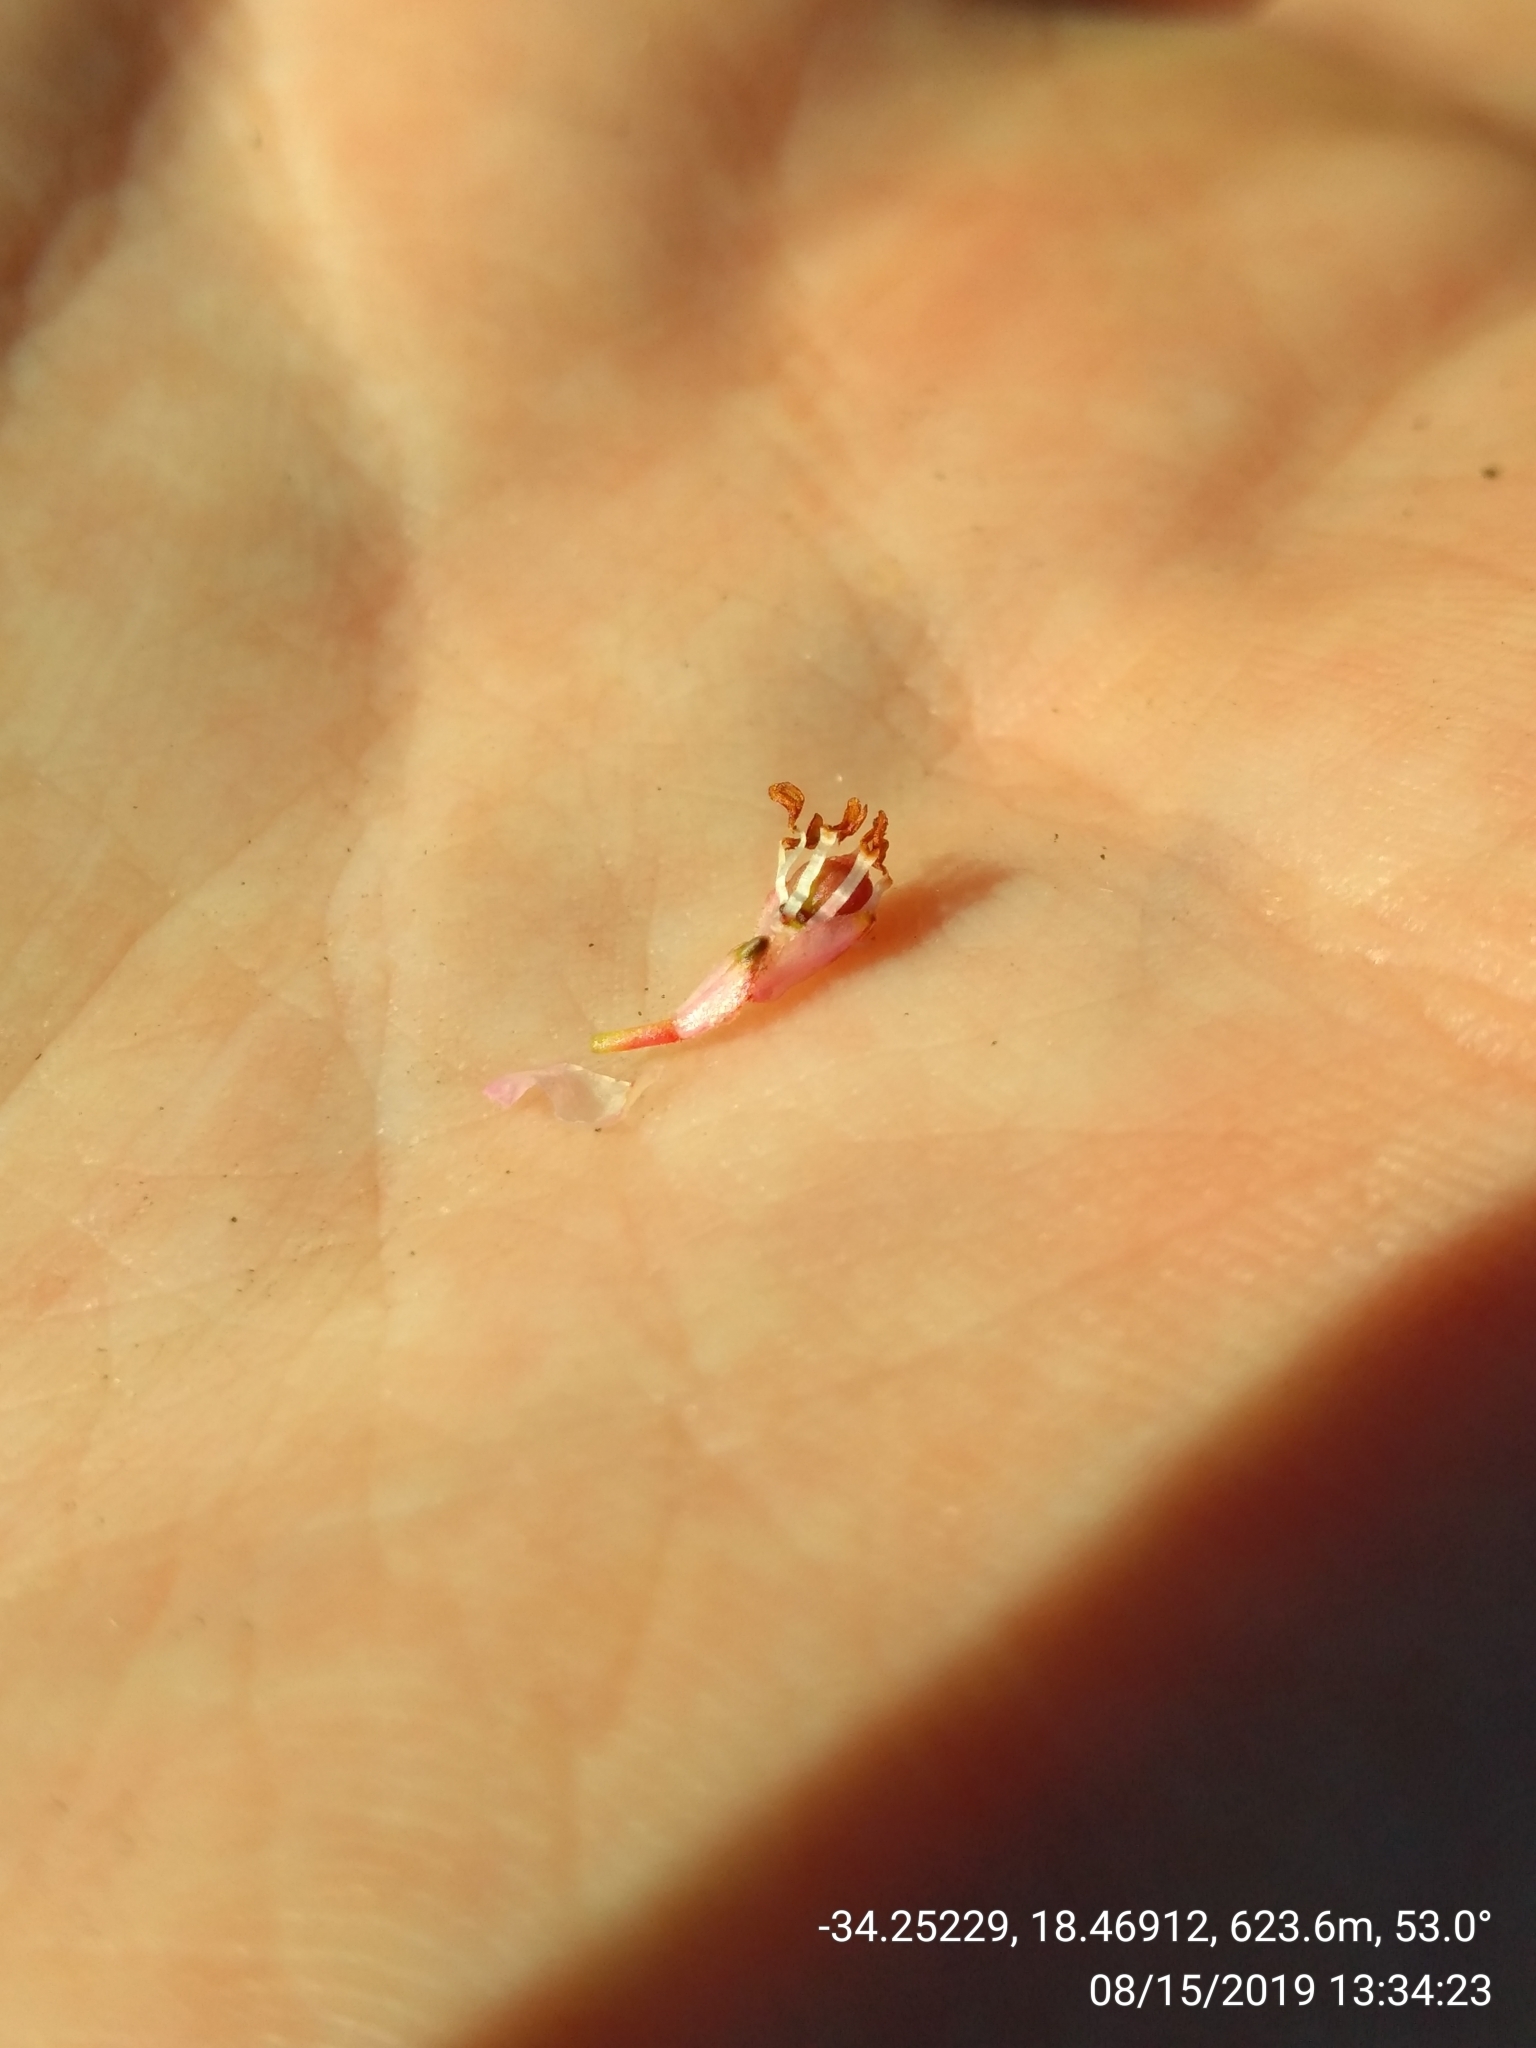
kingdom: Plantae
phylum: Tracheophyta
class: Magnoliopsida
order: Ericales
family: Ericaceae
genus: Erica
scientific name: Erica brevifolia
